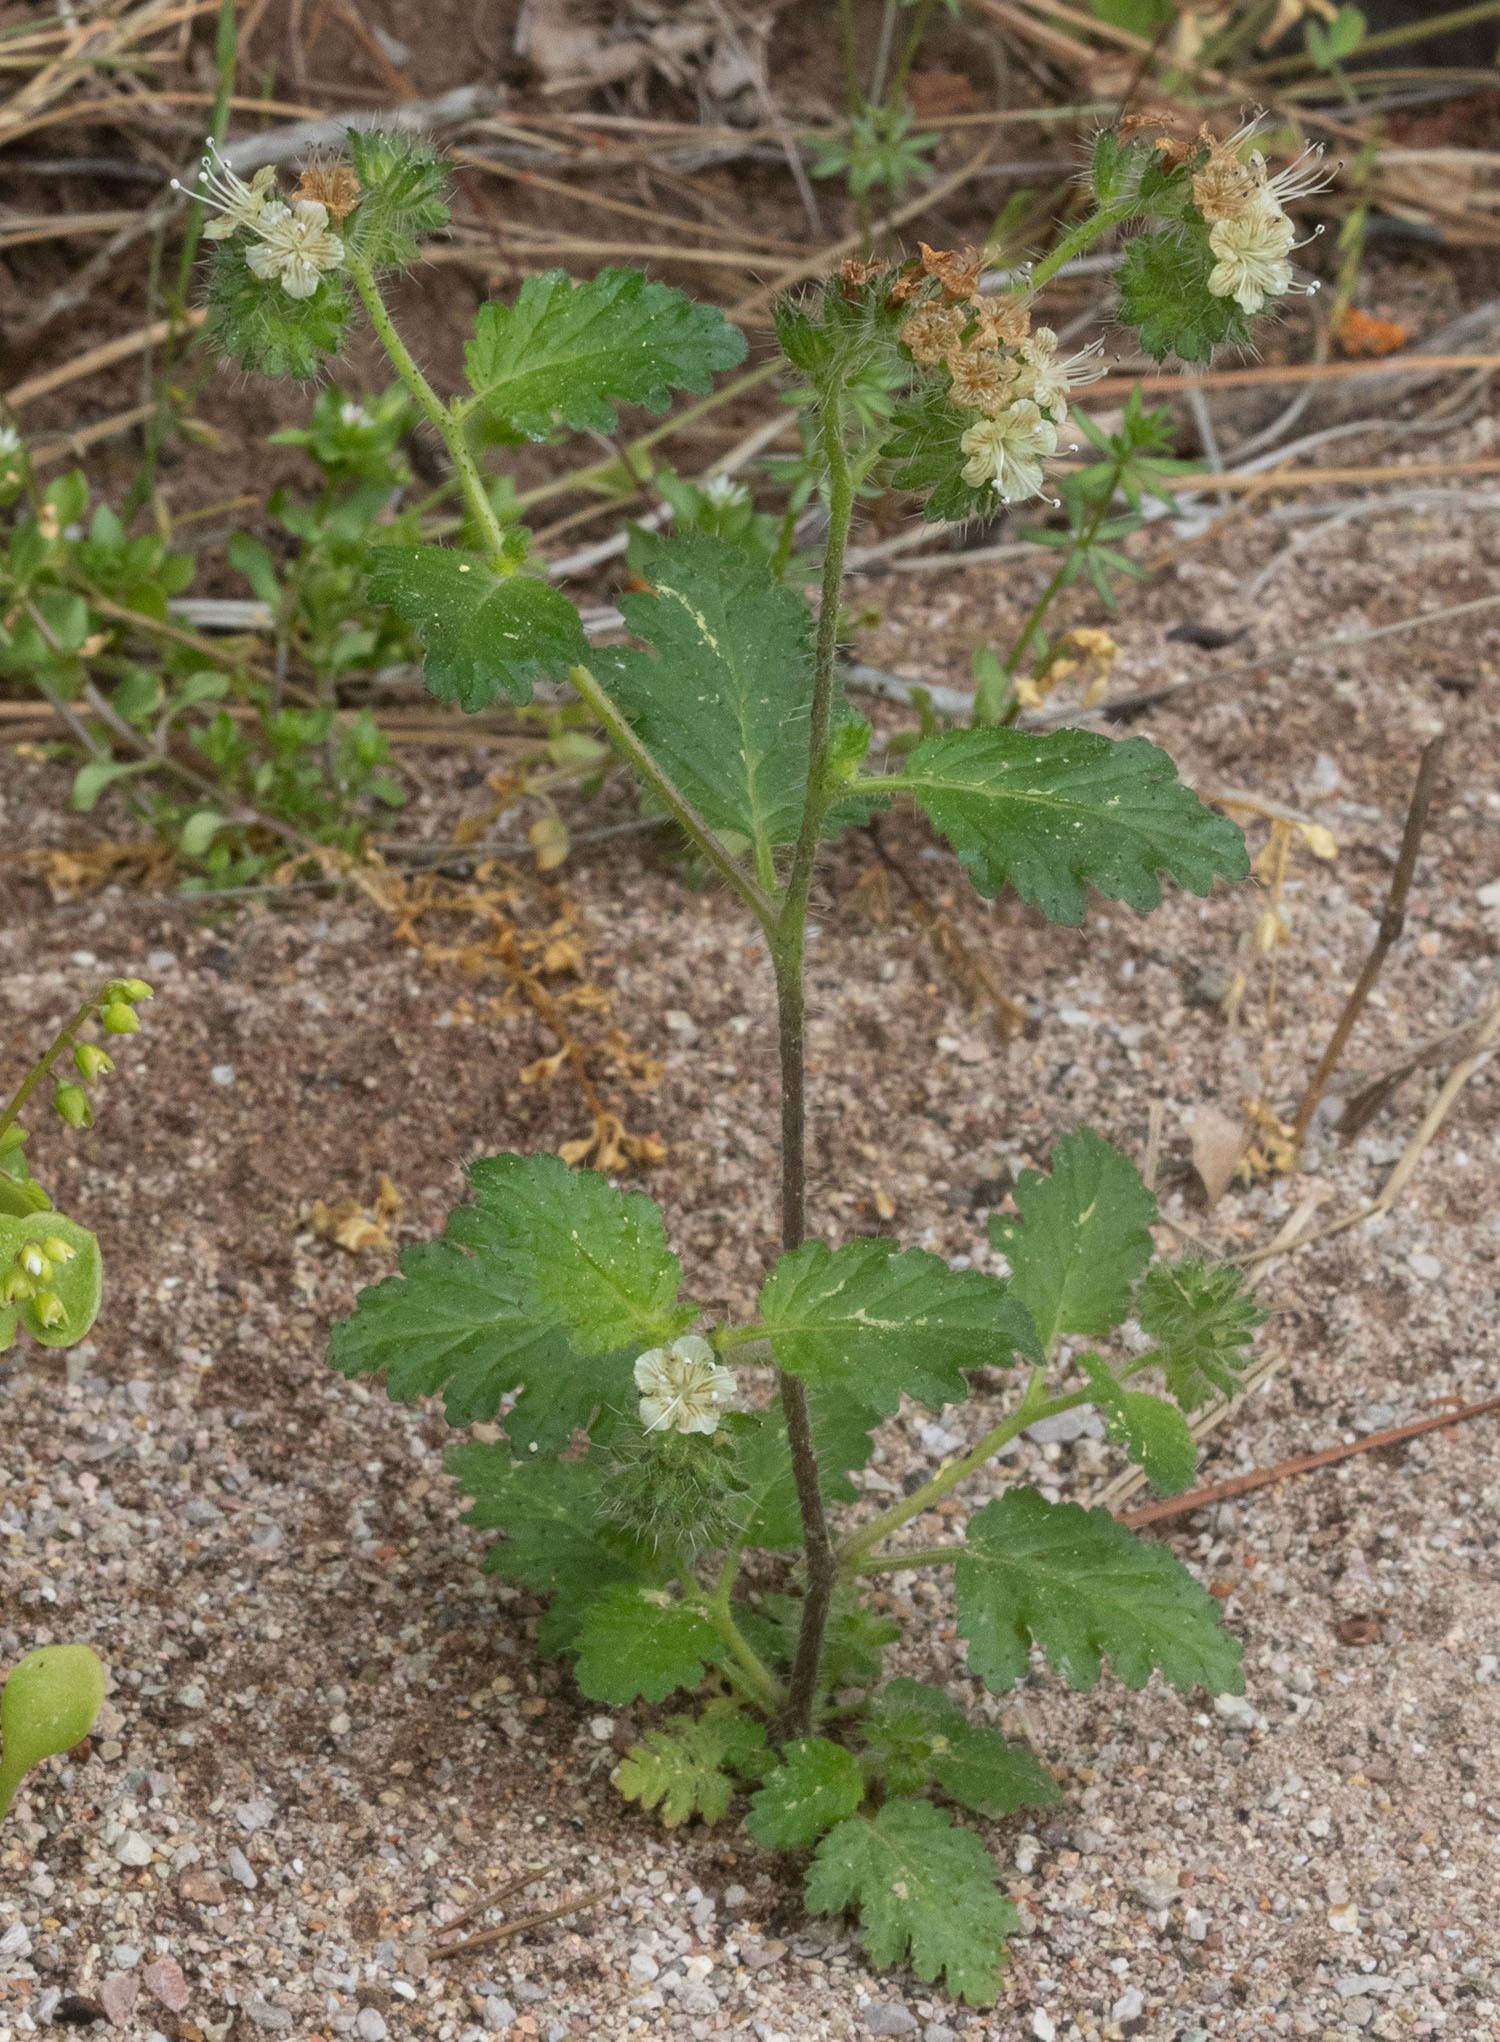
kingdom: Plantae
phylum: Tracheophyta
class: Magnoliopsida
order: Boraginales
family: Hydrophyllaceae
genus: Phacelia
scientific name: Phacelia malvifolia
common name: Mallow-leaf phacelia
